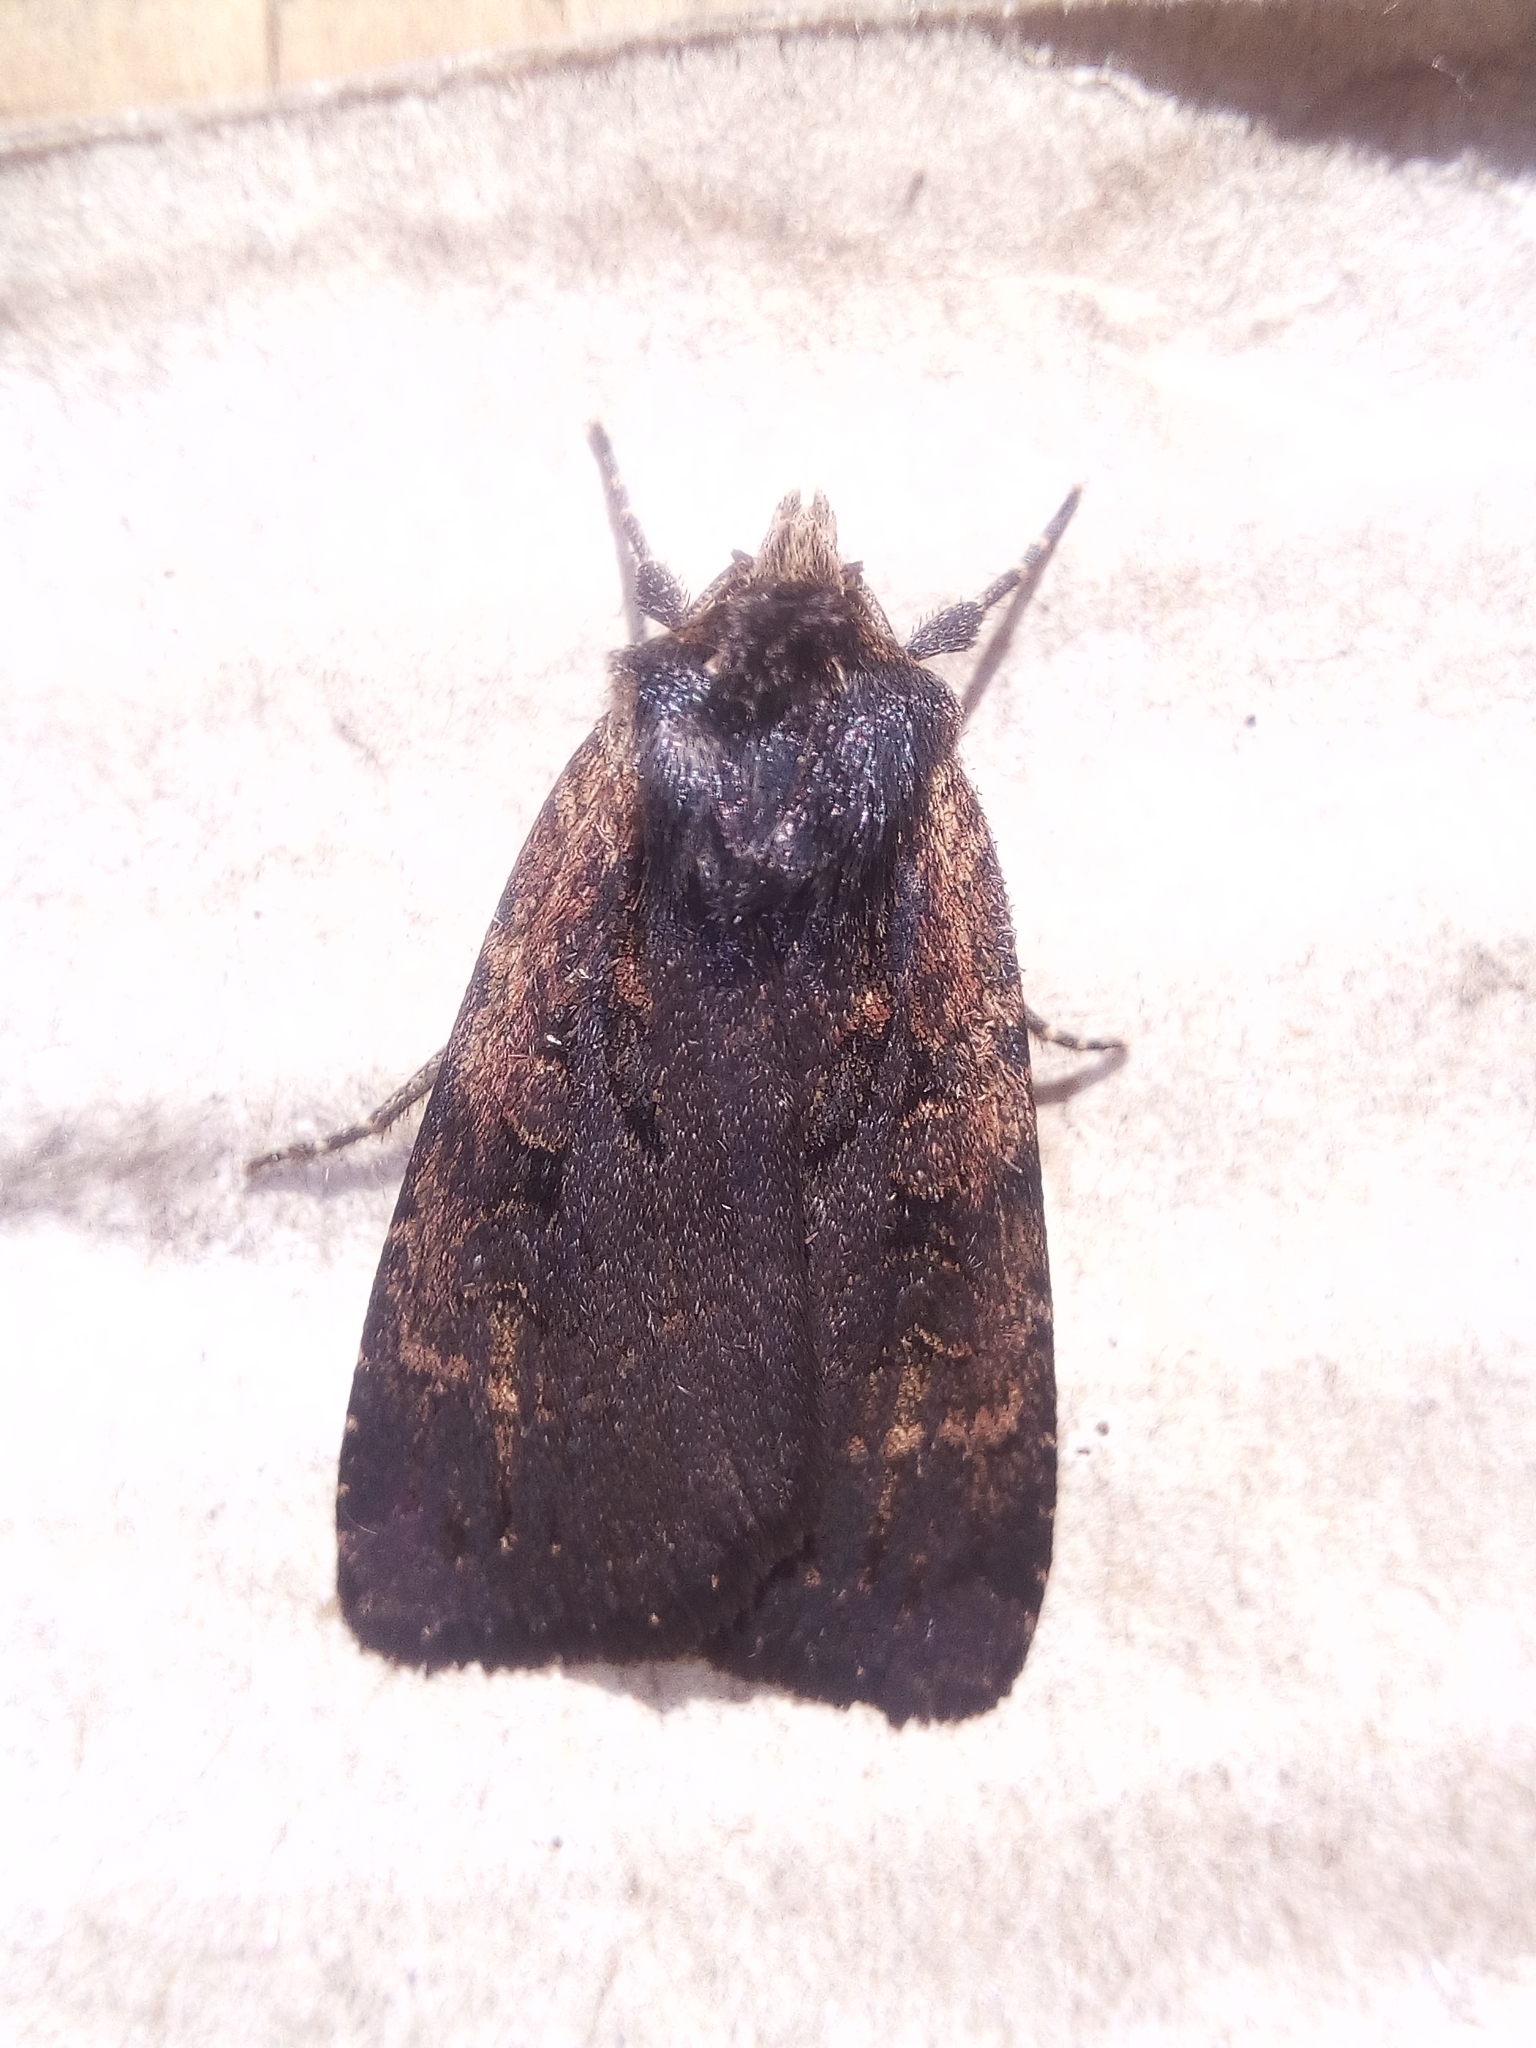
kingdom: Animalia
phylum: Arthropoda
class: Insecta
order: Lepidoptera
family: Noctuidae
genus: Eugraphe
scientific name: Eugraphe sigma
